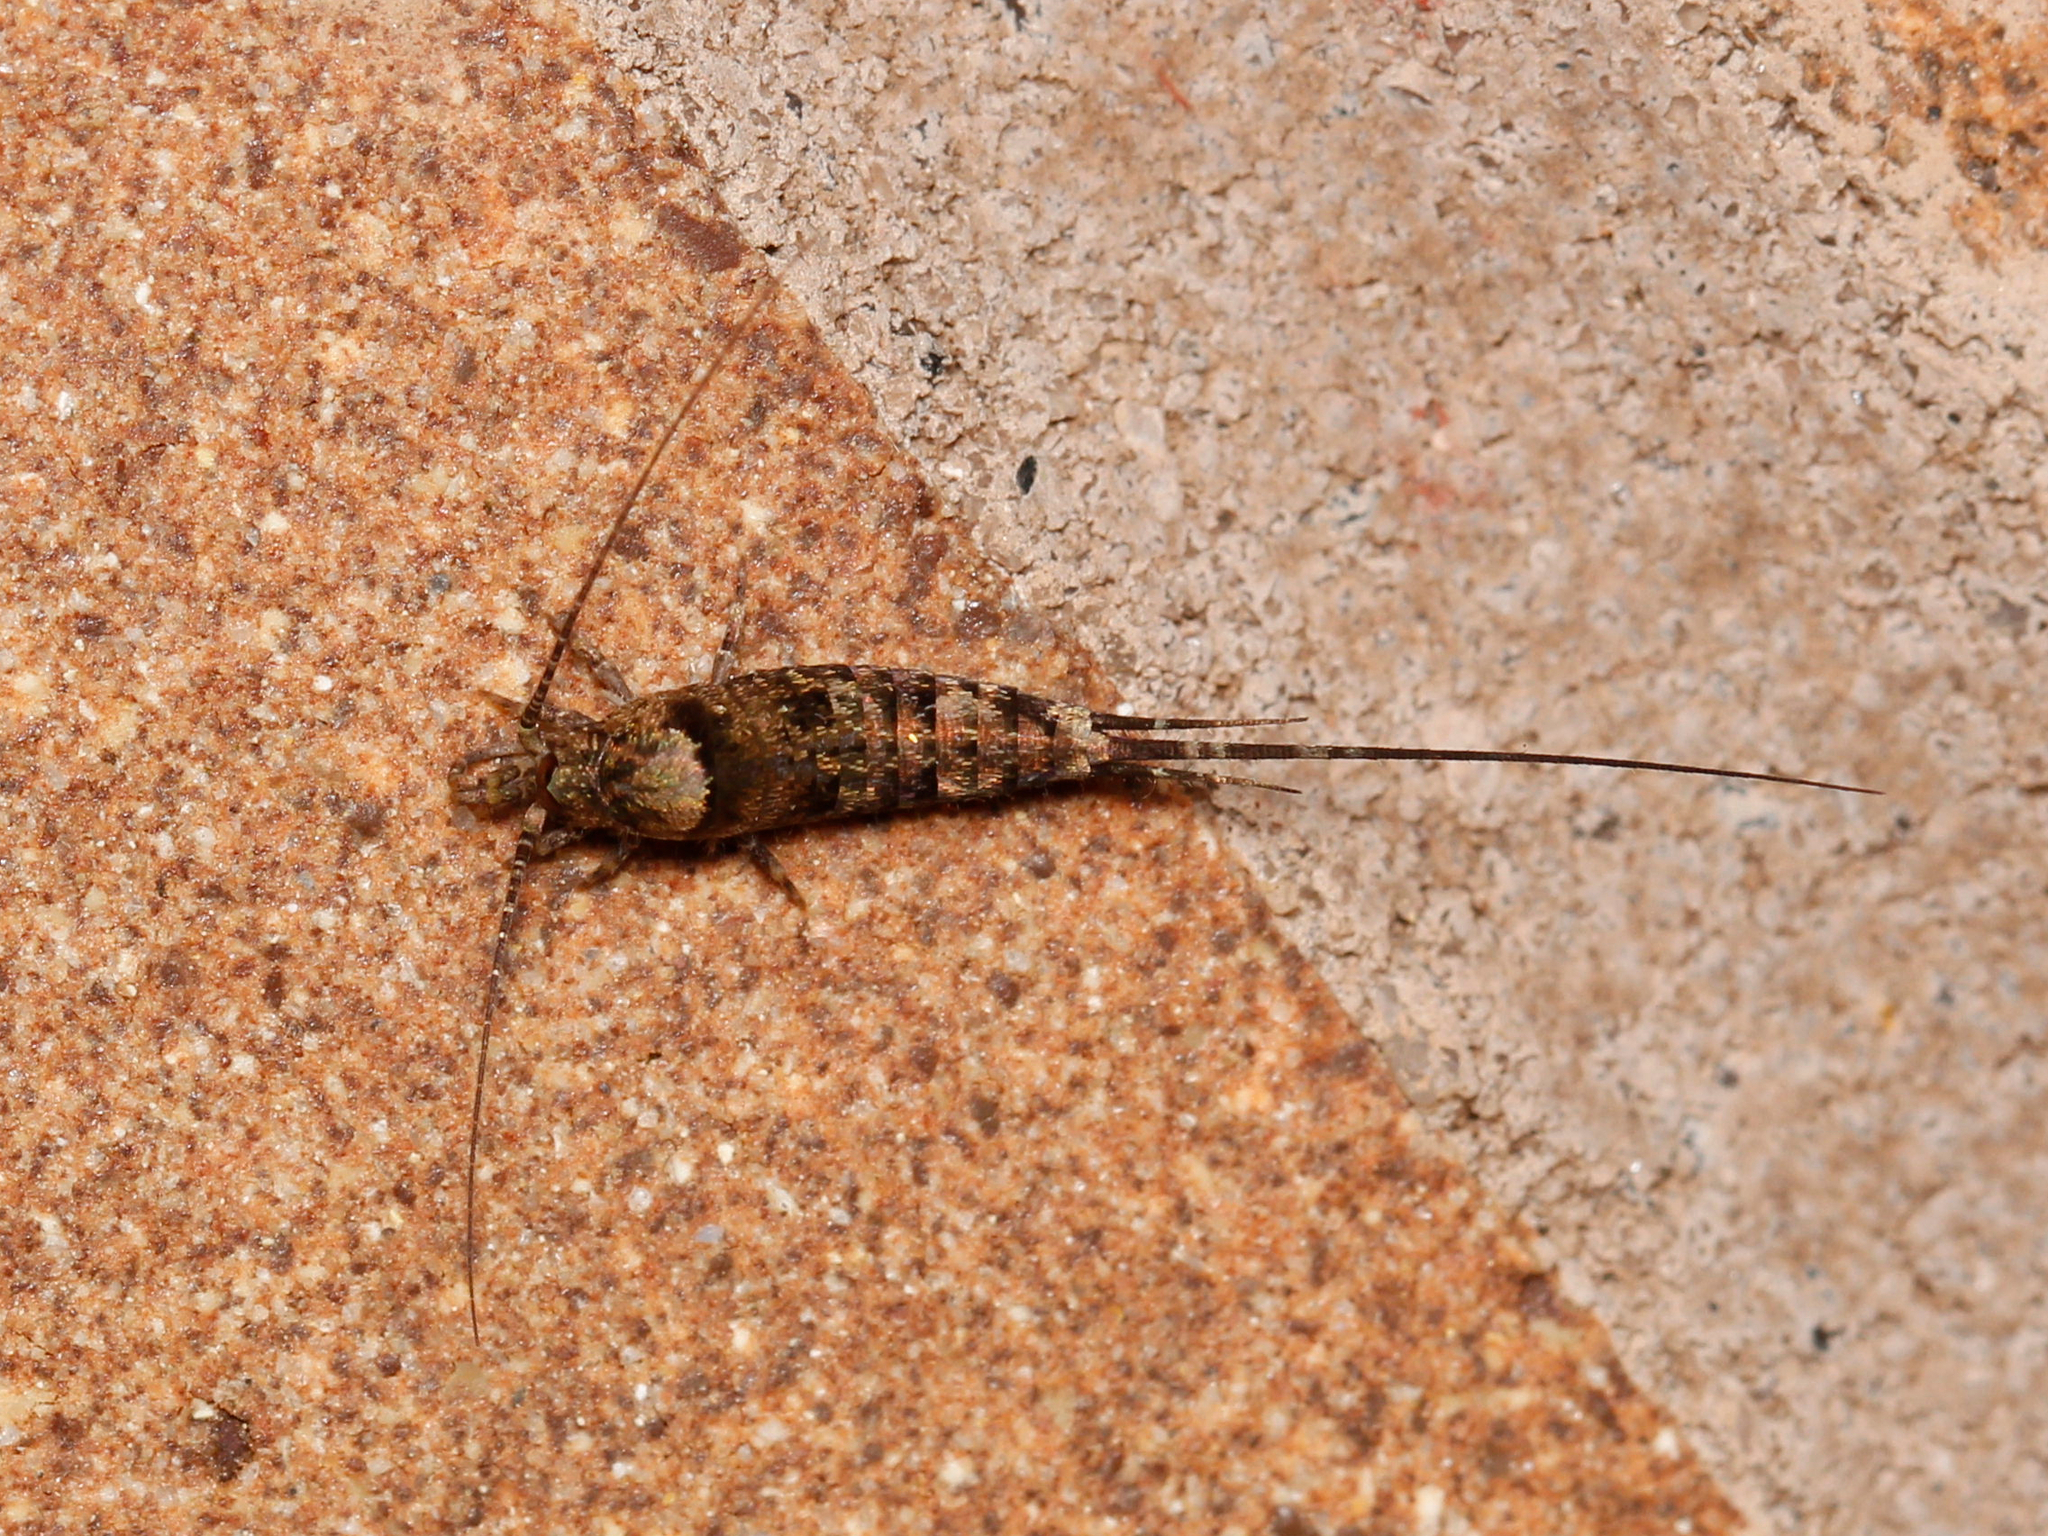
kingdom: Animalia
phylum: Arthropoda
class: Insecta
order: Archaeognatha
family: Machilidae
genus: Trigoniophthalmus
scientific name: Trigoniophthalmus alternatus
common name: Jumping bristletail
